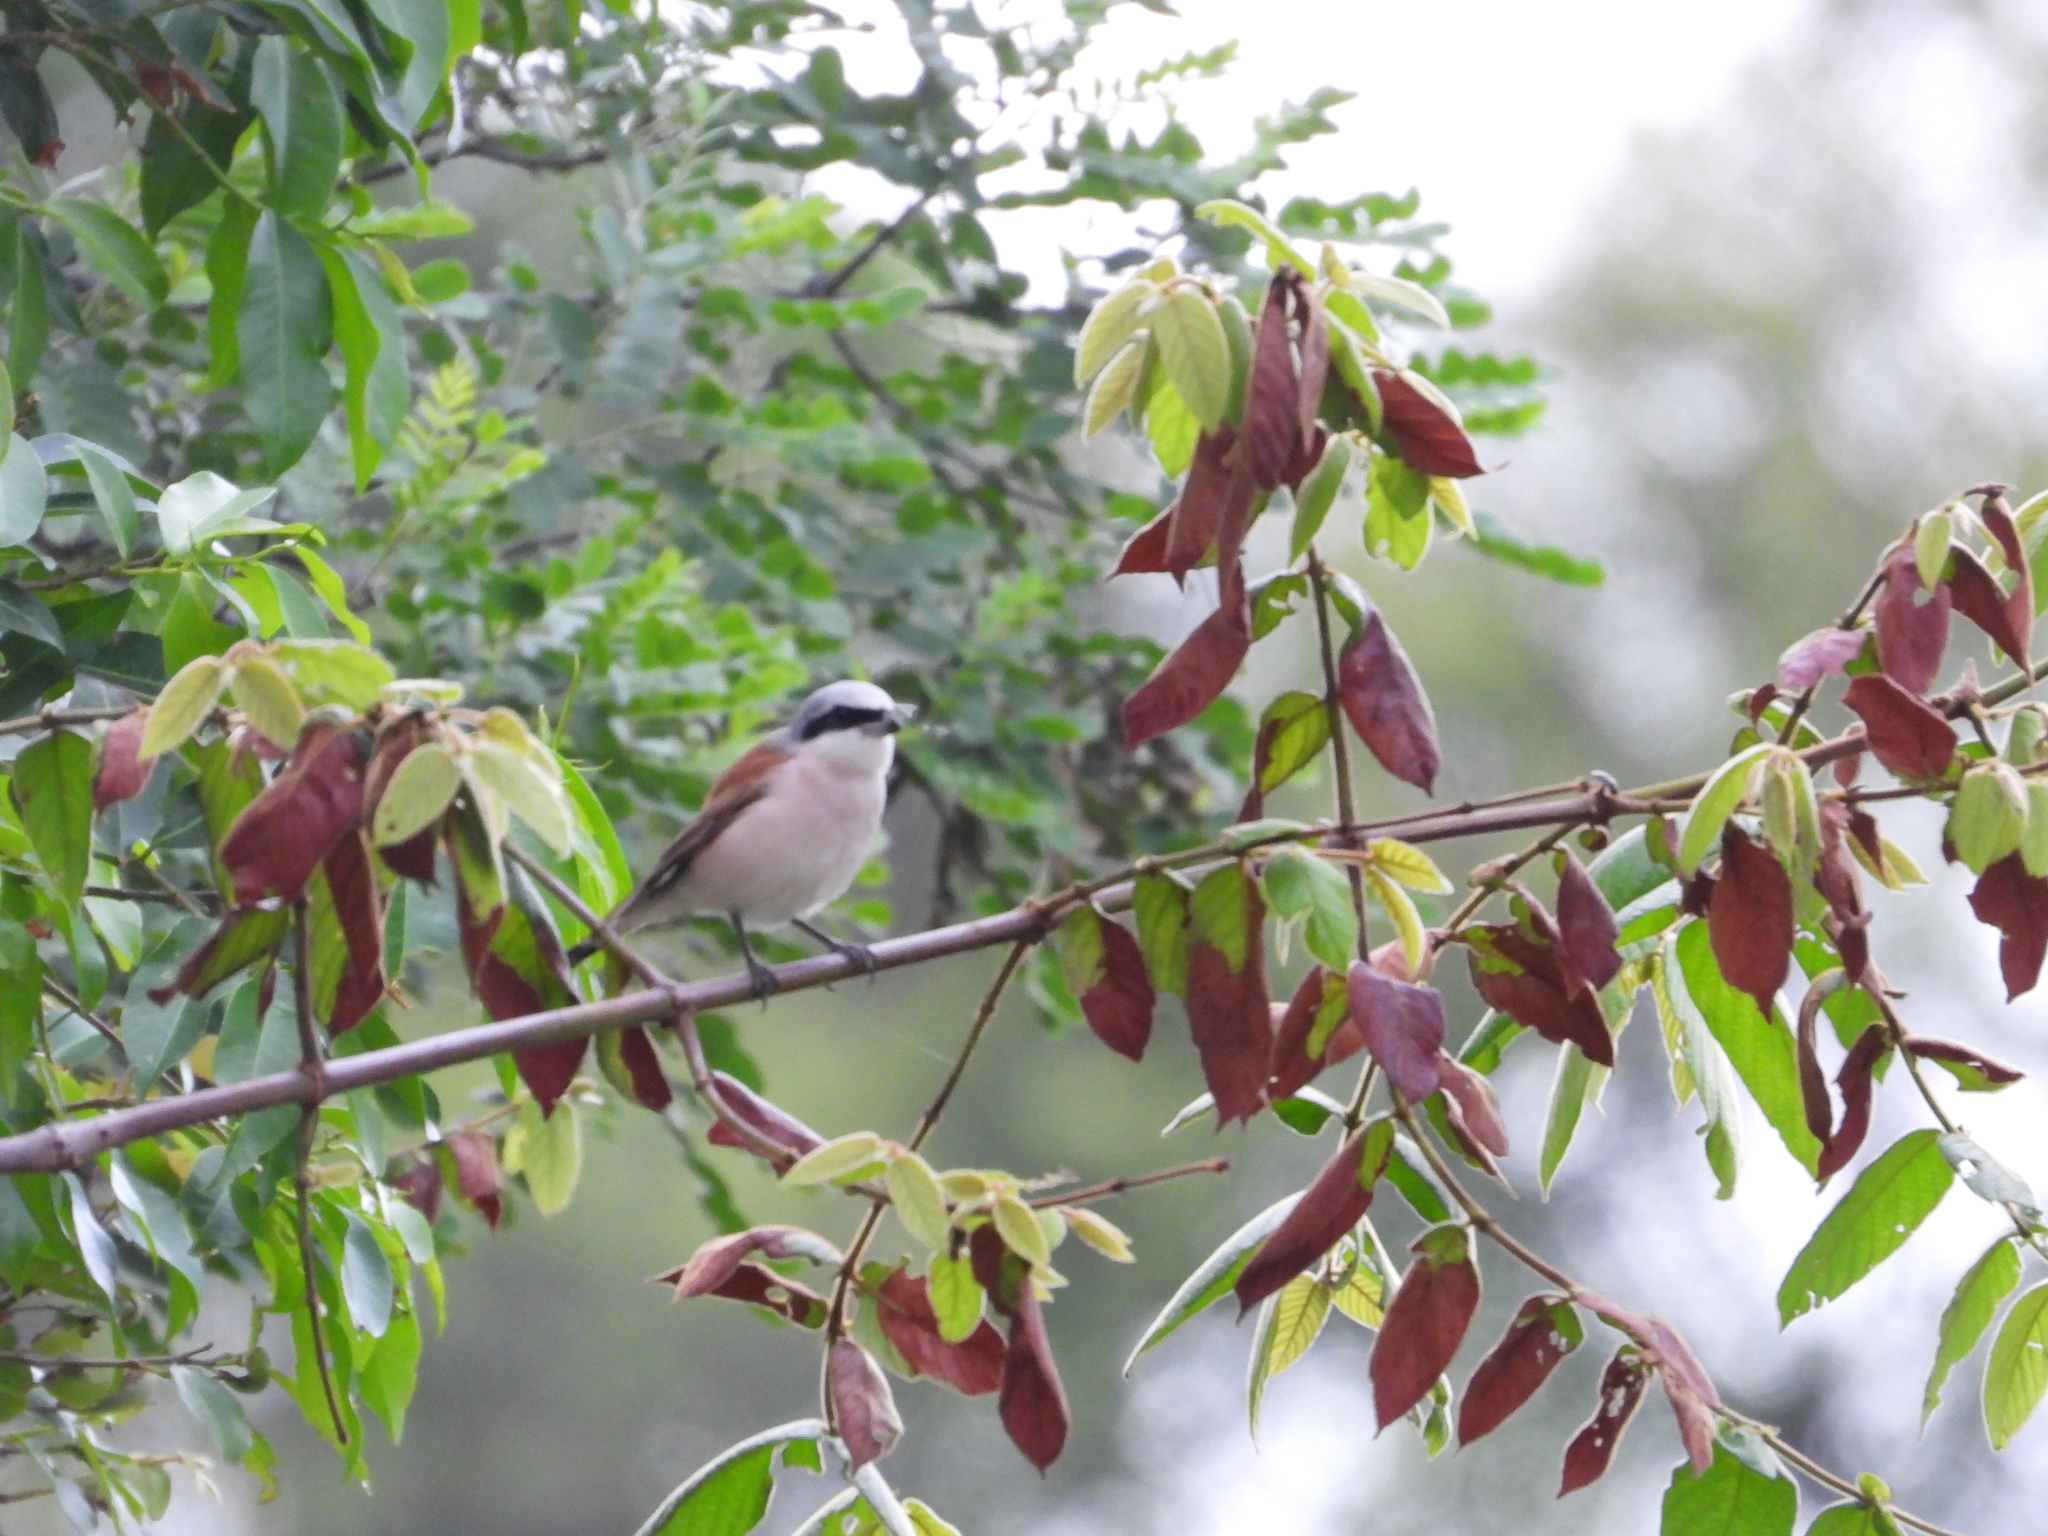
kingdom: Animalia
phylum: Chordata
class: Aves
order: Passeriformes
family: Laniidae
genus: Lanius
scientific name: Lanius collurio
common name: Red-backed shrike
